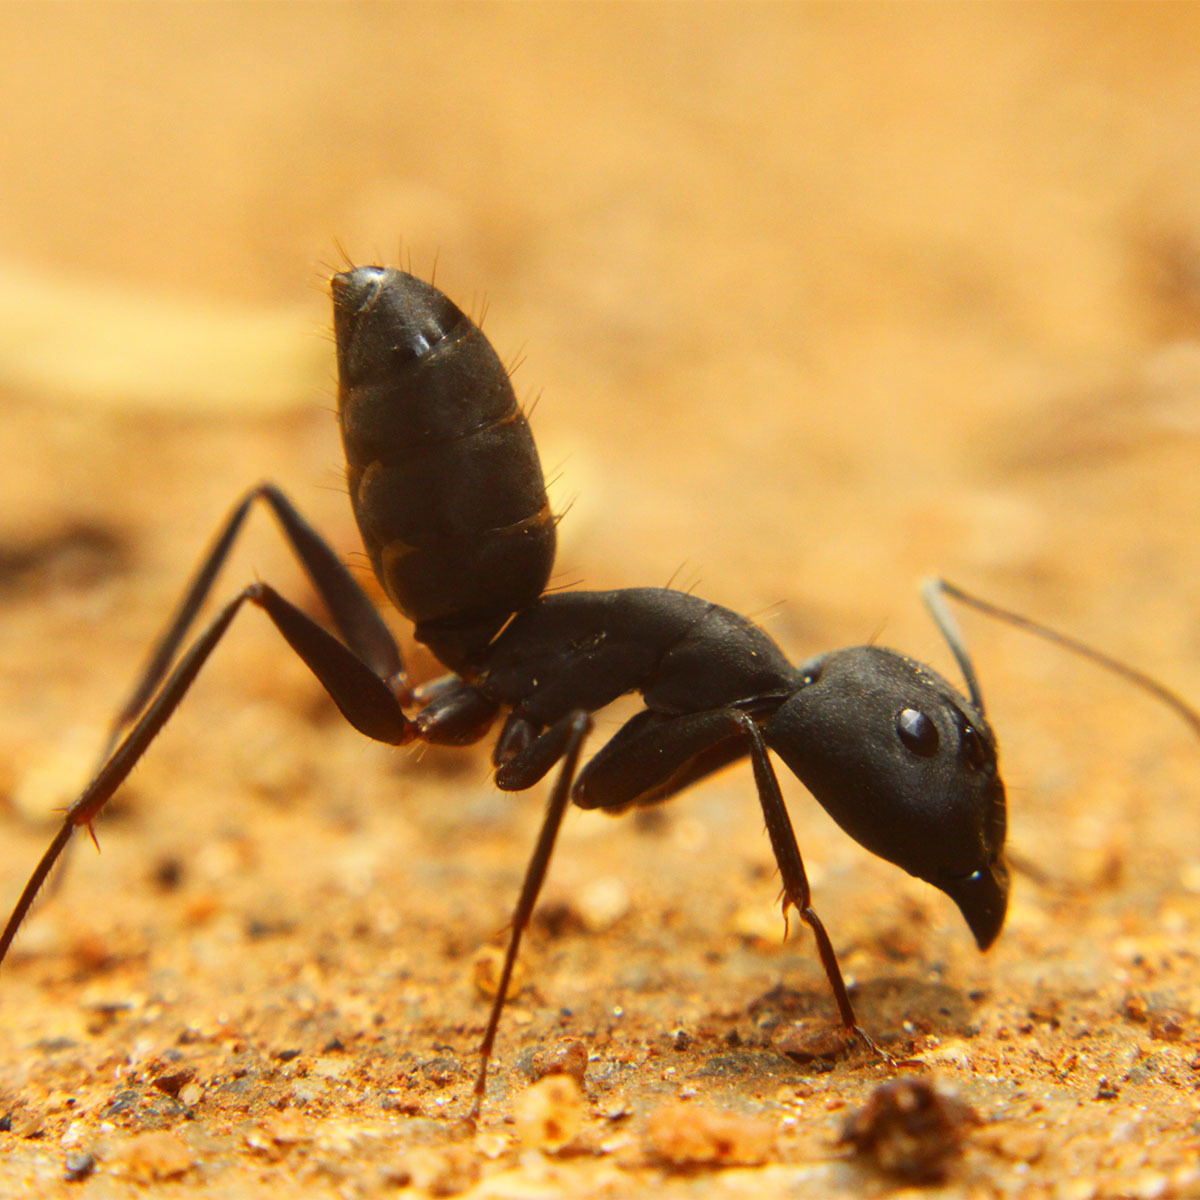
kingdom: Animalia
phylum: Arthropoda
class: Insecta
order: Hymenoptera
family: Formicidae
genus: Camponotus
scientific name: Camponotus compressus
